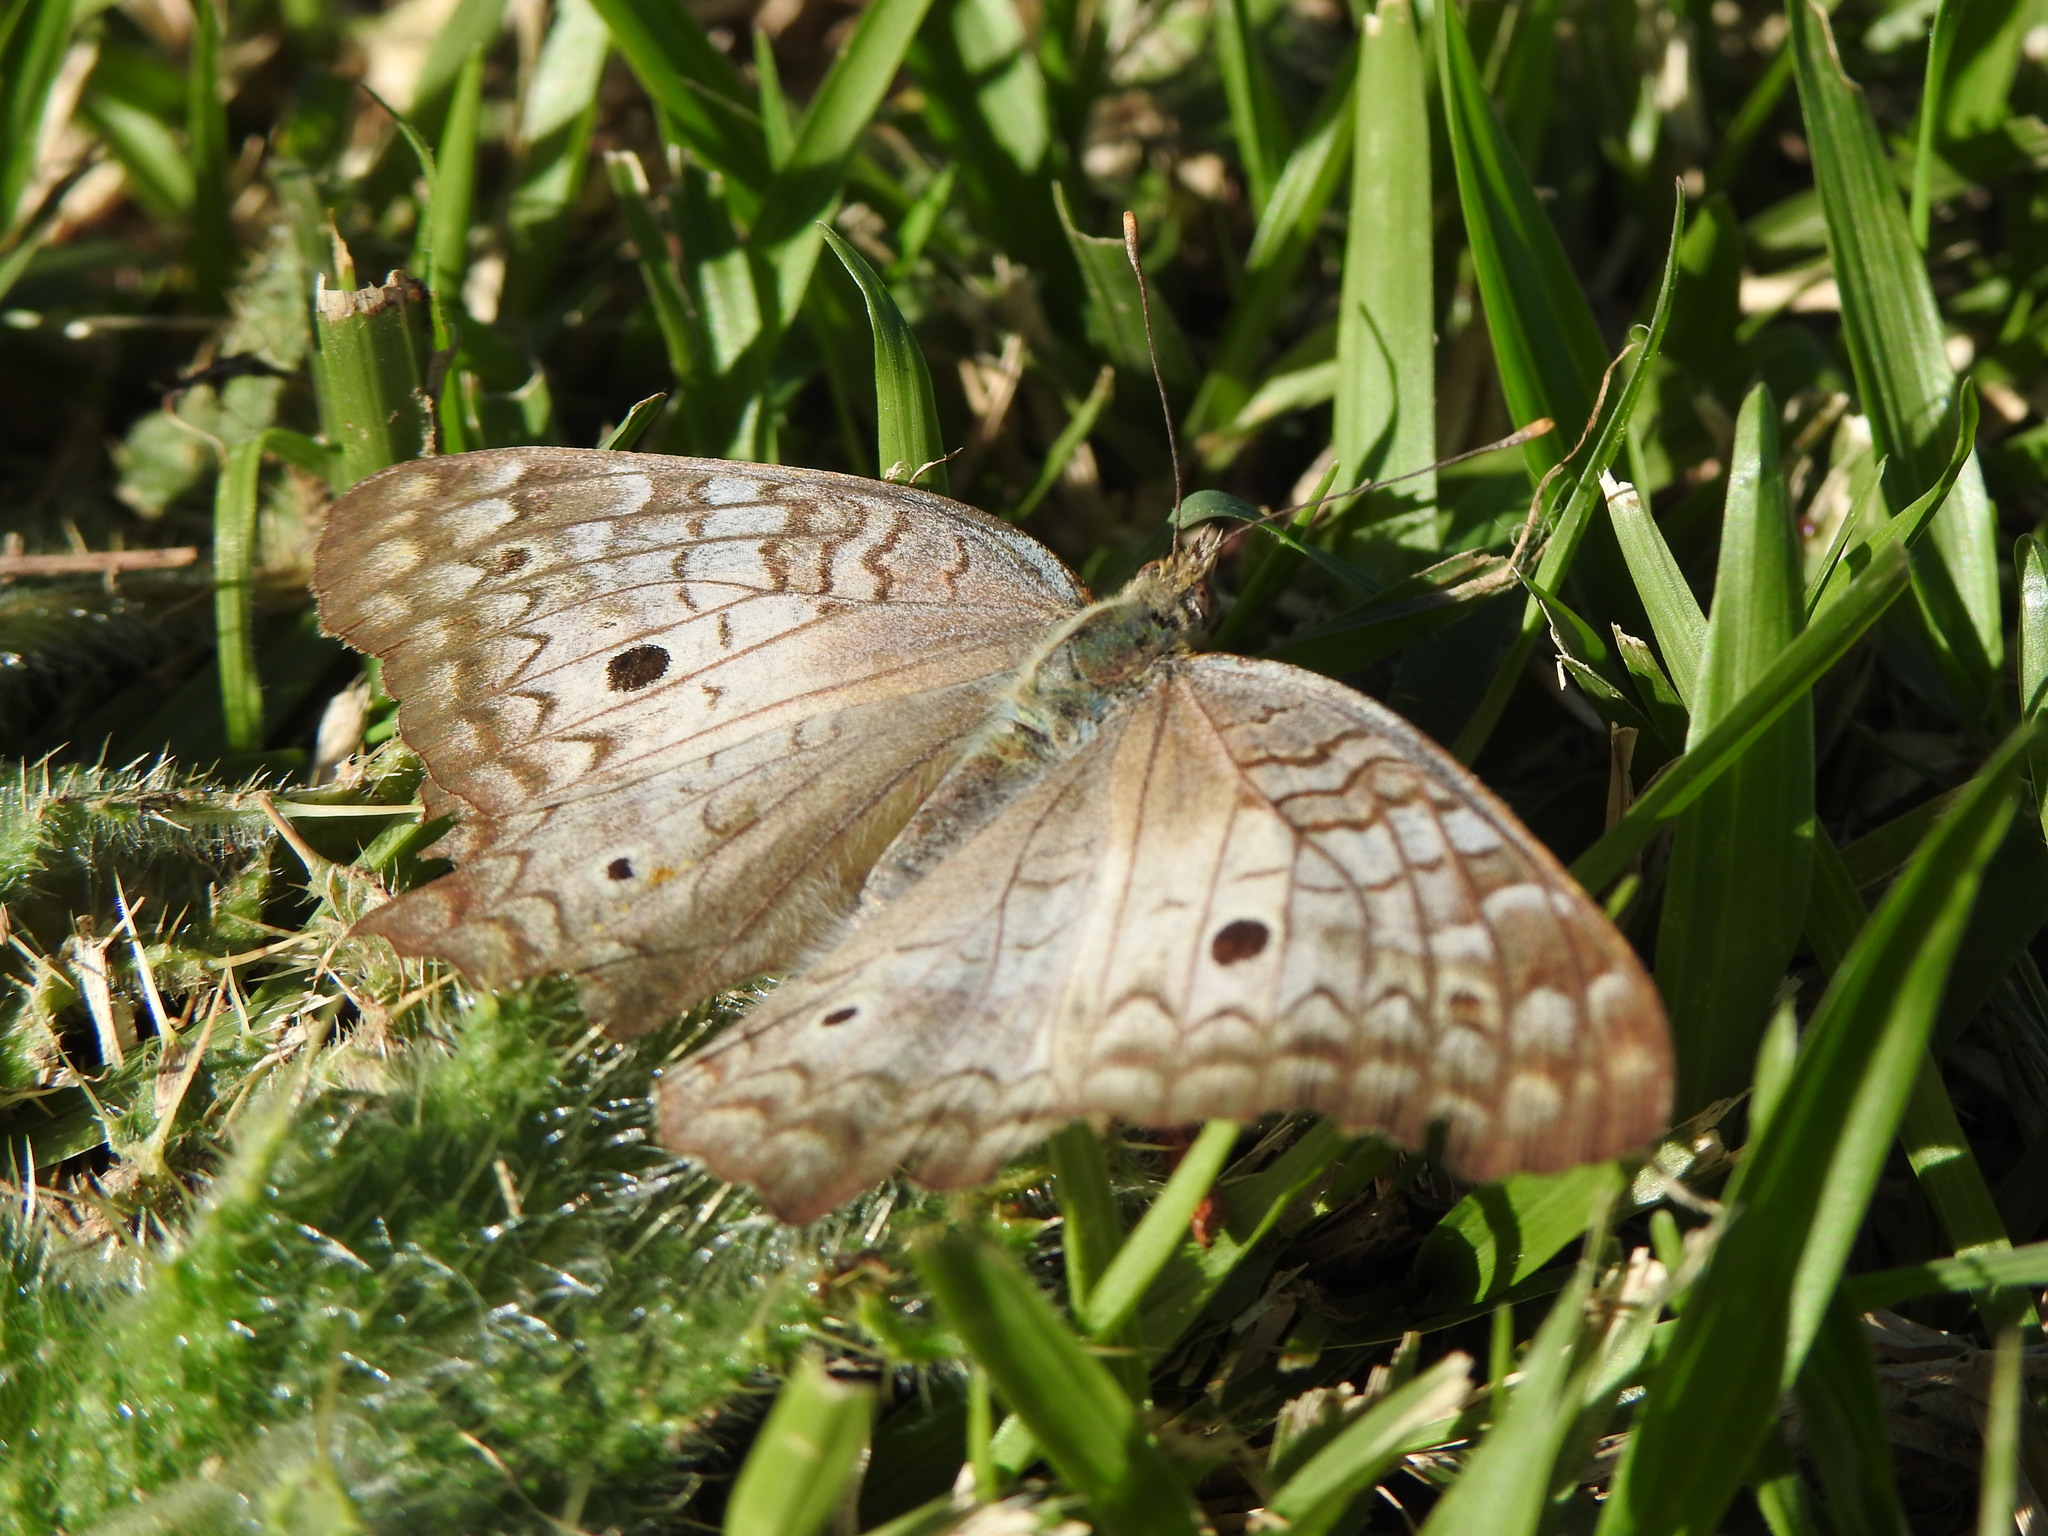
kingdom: Animalia
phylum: Arthropoda
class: Insecta
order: Lepidoptera
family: Nymphalidae
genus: Anartia
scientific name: Anartia jatrophae
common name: White peacock
